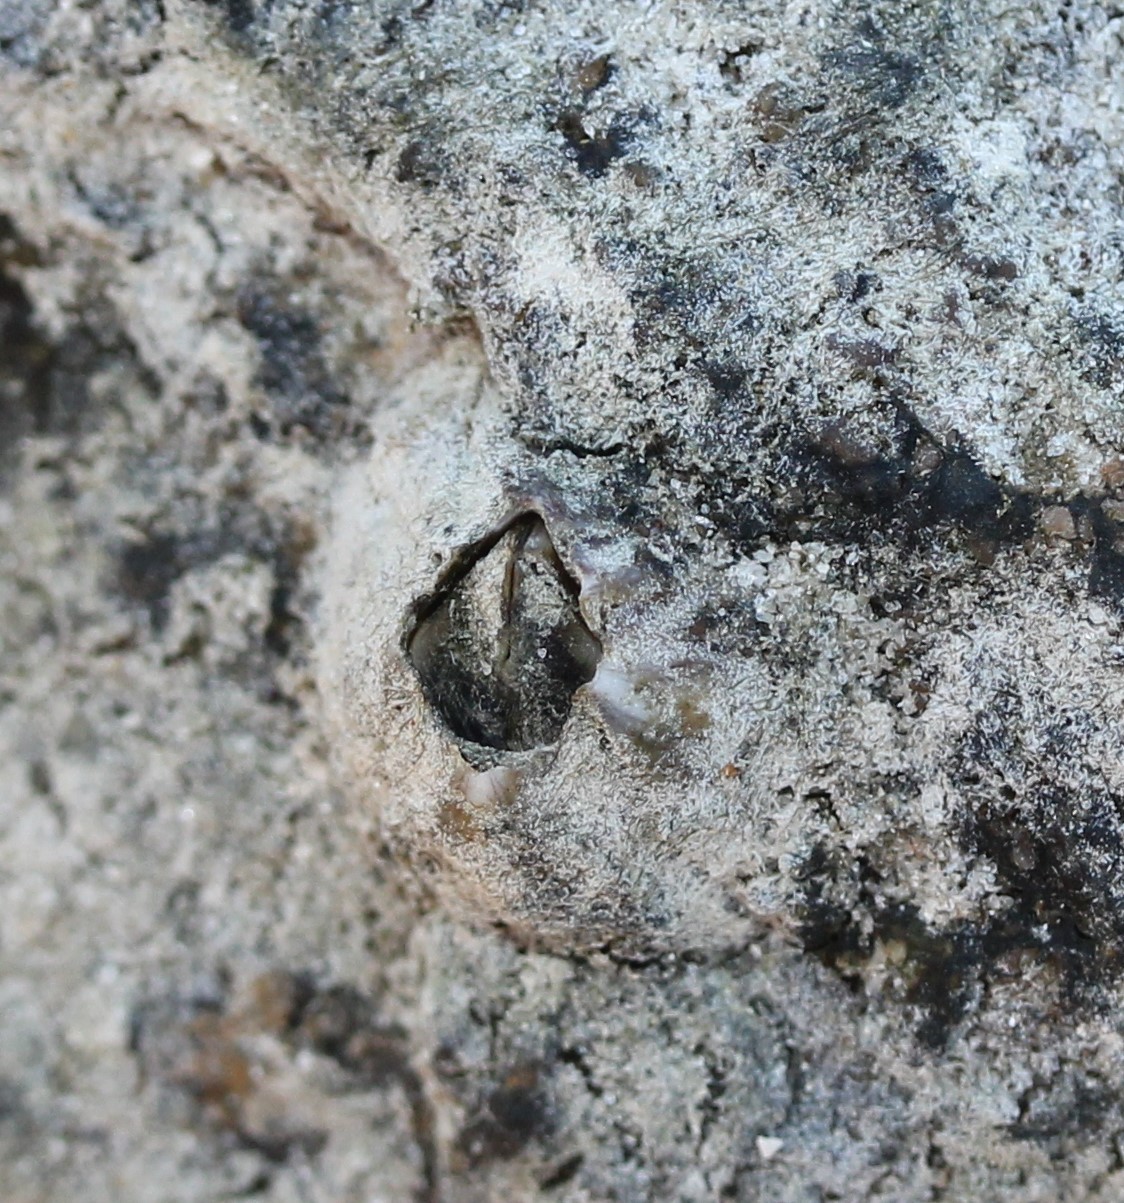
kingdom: Animalia
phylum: Arthropoda
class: Maxillopoda
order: Sessilia
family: Balanidae
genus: Amphibalanus
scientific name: Amphibalanus amphitrite
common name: Striped acorn barnacle
